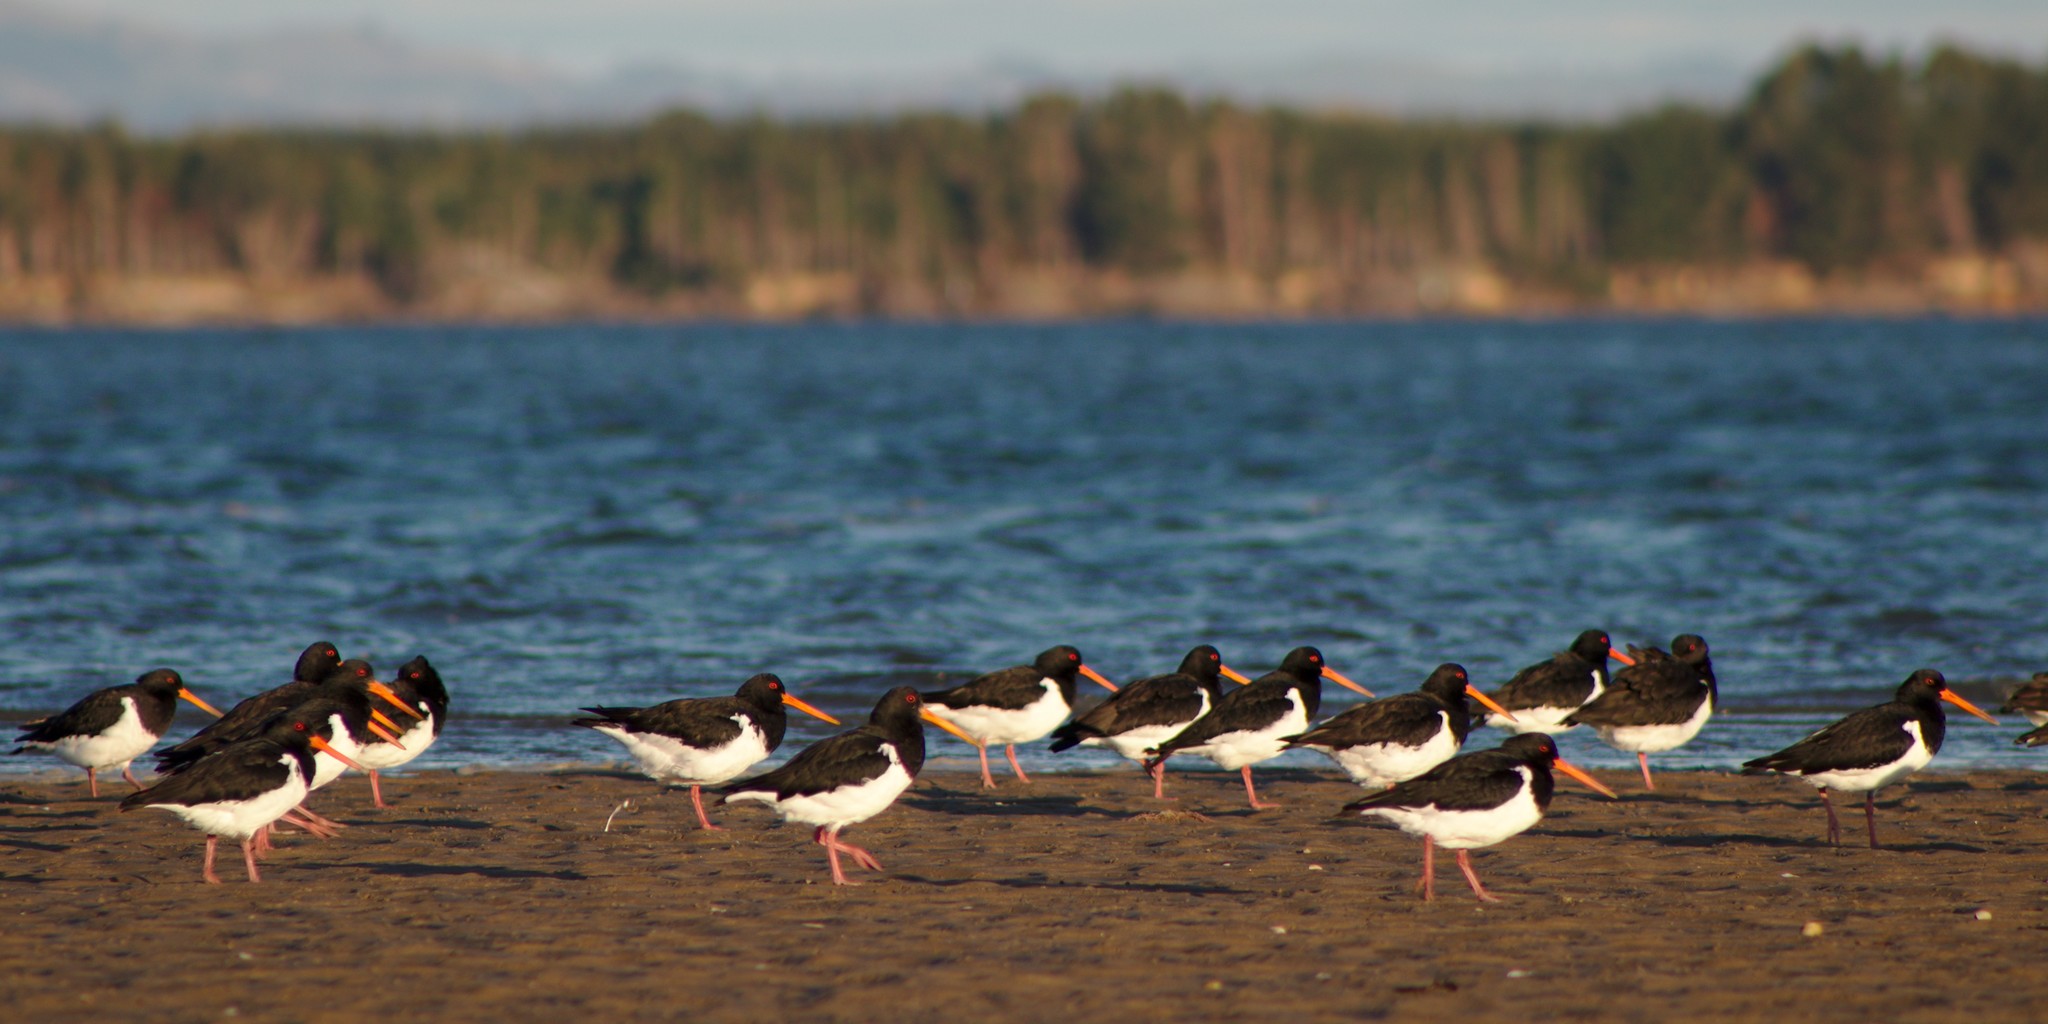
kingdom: Animalia
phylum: Chordata
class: Aves
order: Charadriiformes
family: Haematopodidae
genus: Haematopus
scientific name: Haematopus finschi
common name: South island oystercatcher
